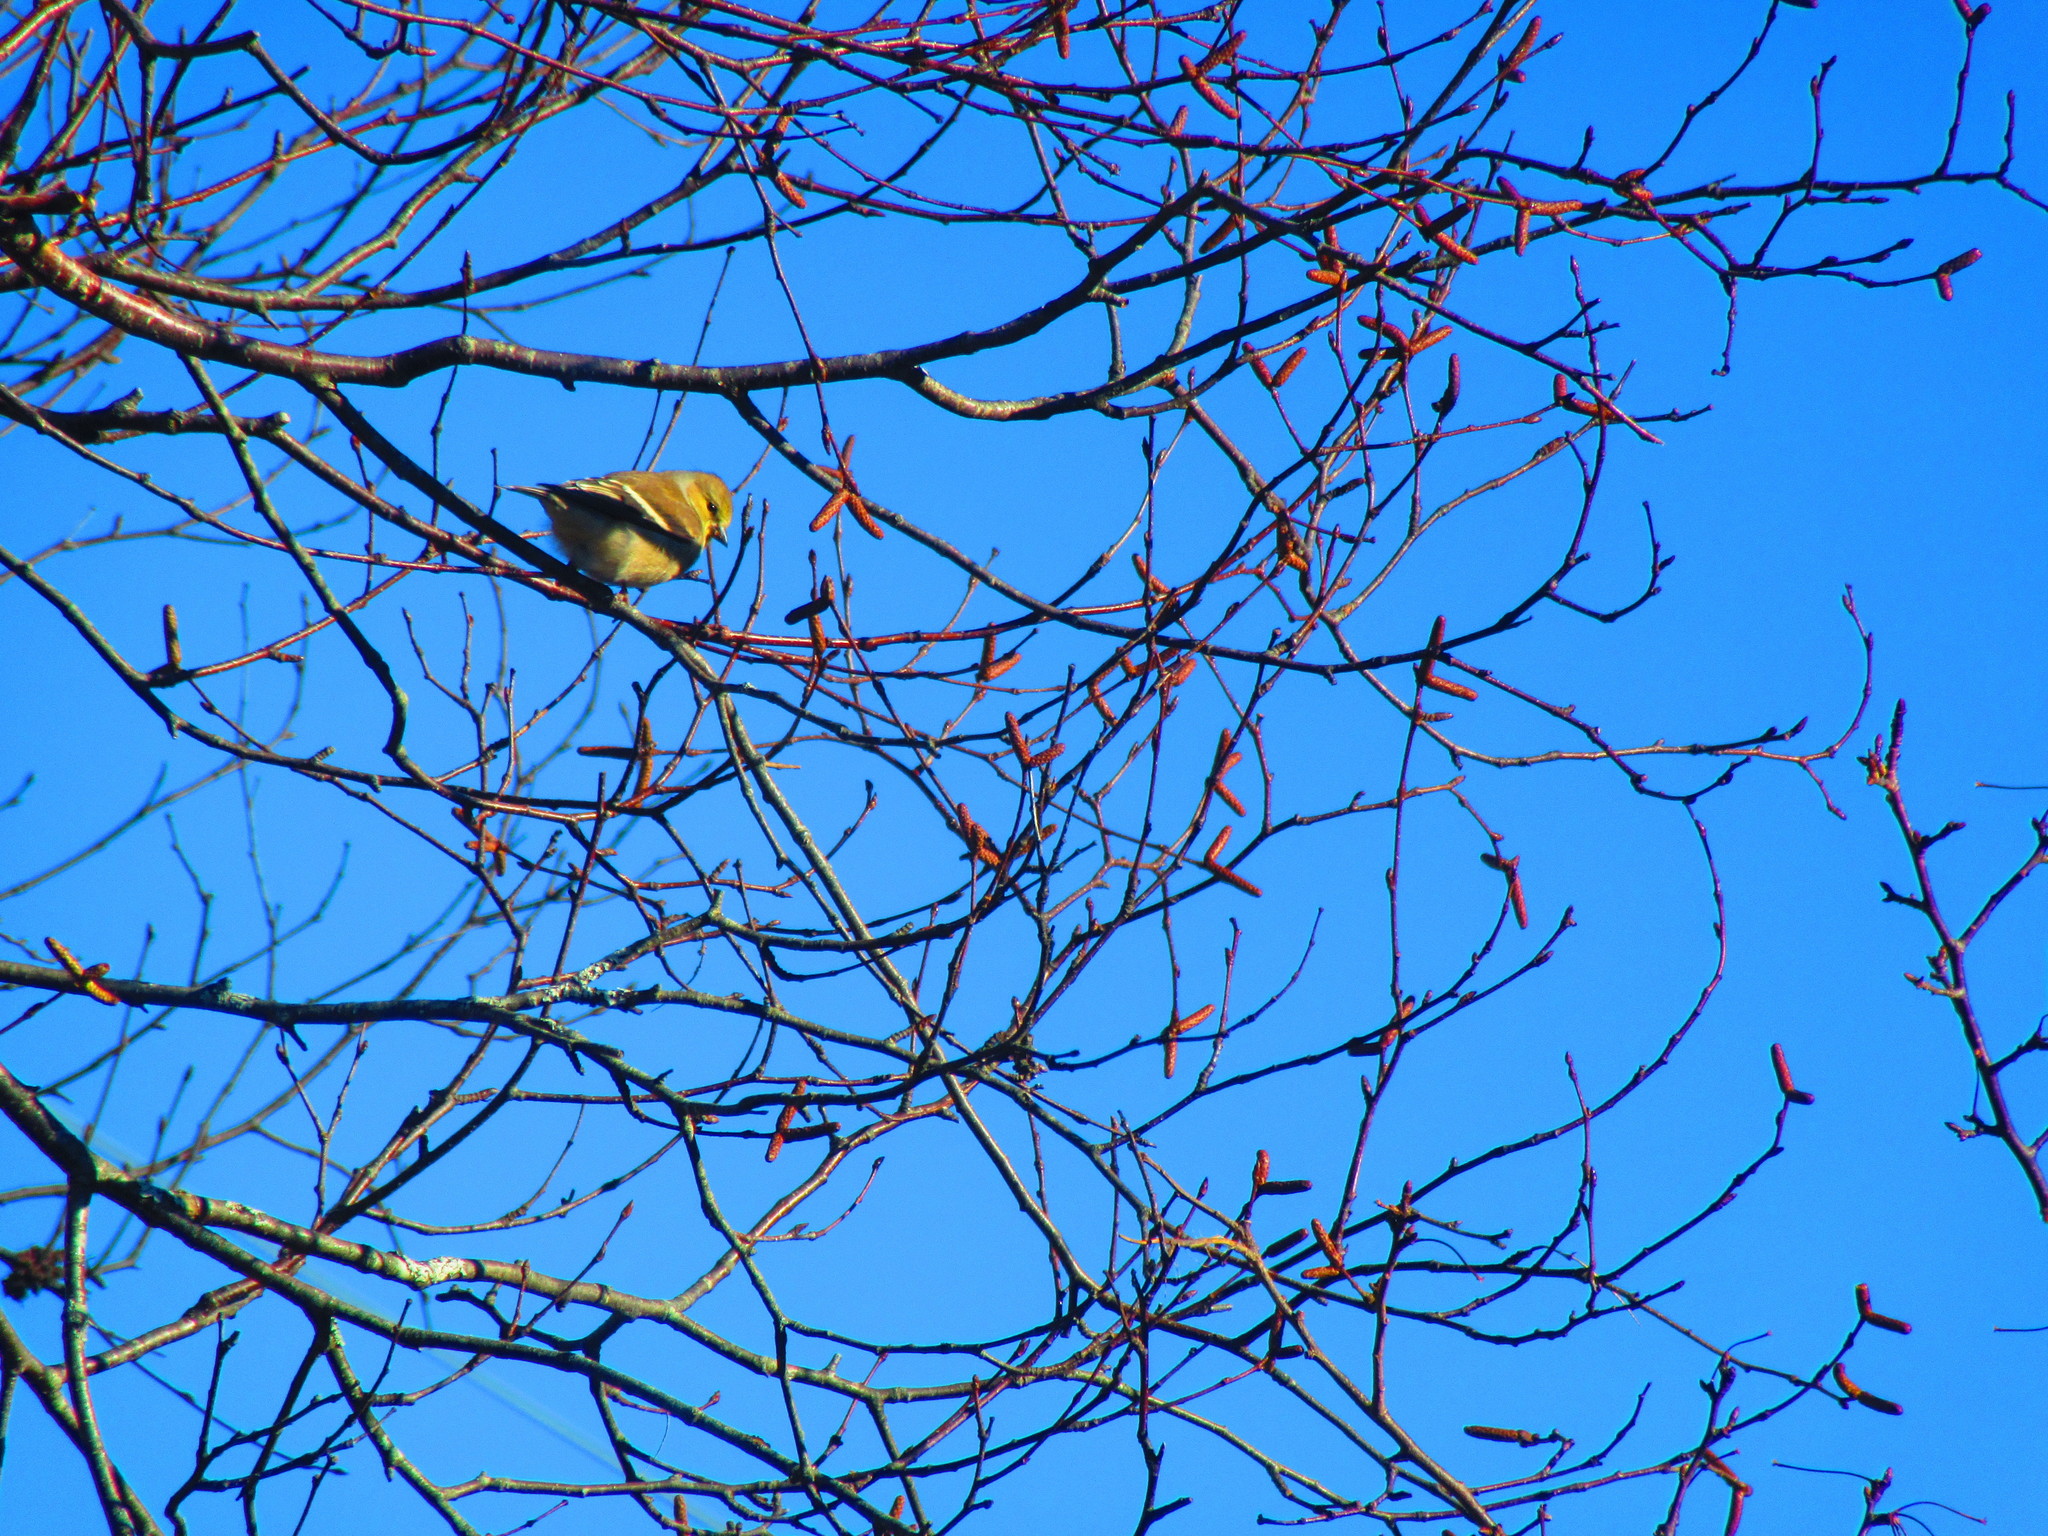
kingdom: Animalia
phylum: Chordata
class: Aves
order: Passeriformes
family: Fringillidae
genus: Spinus
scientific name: Spinus tristis
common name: American goldfinch
